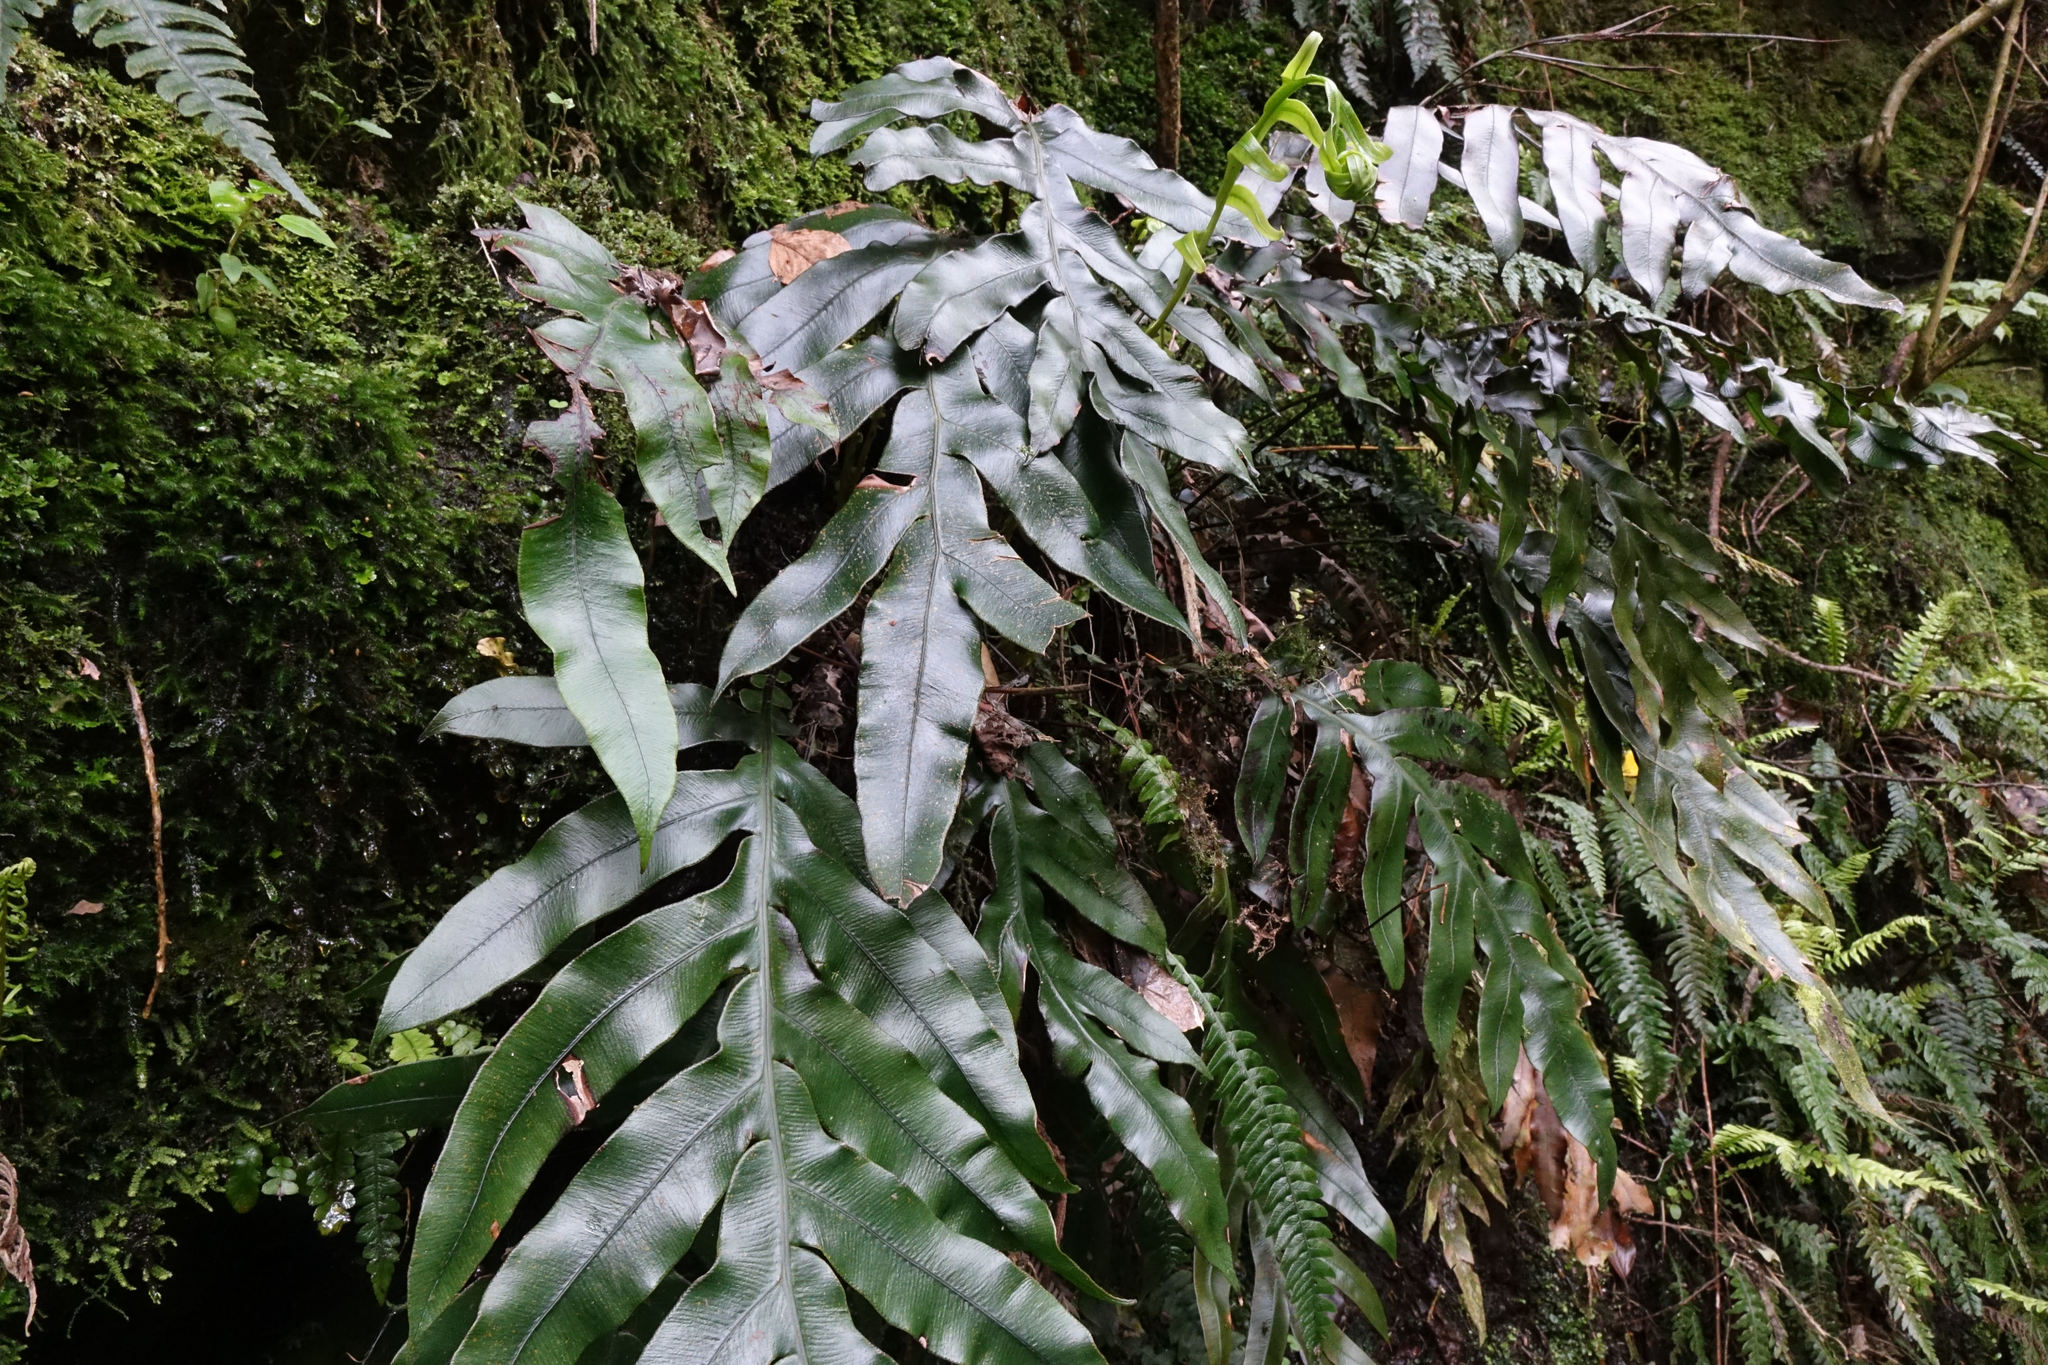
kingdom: Plantae
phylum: Tracheophyta
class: Polypodiopsida
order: Polypodiales
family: Blechnaceae
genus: Austroblechnum
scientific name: Austroblechnum colensoi
